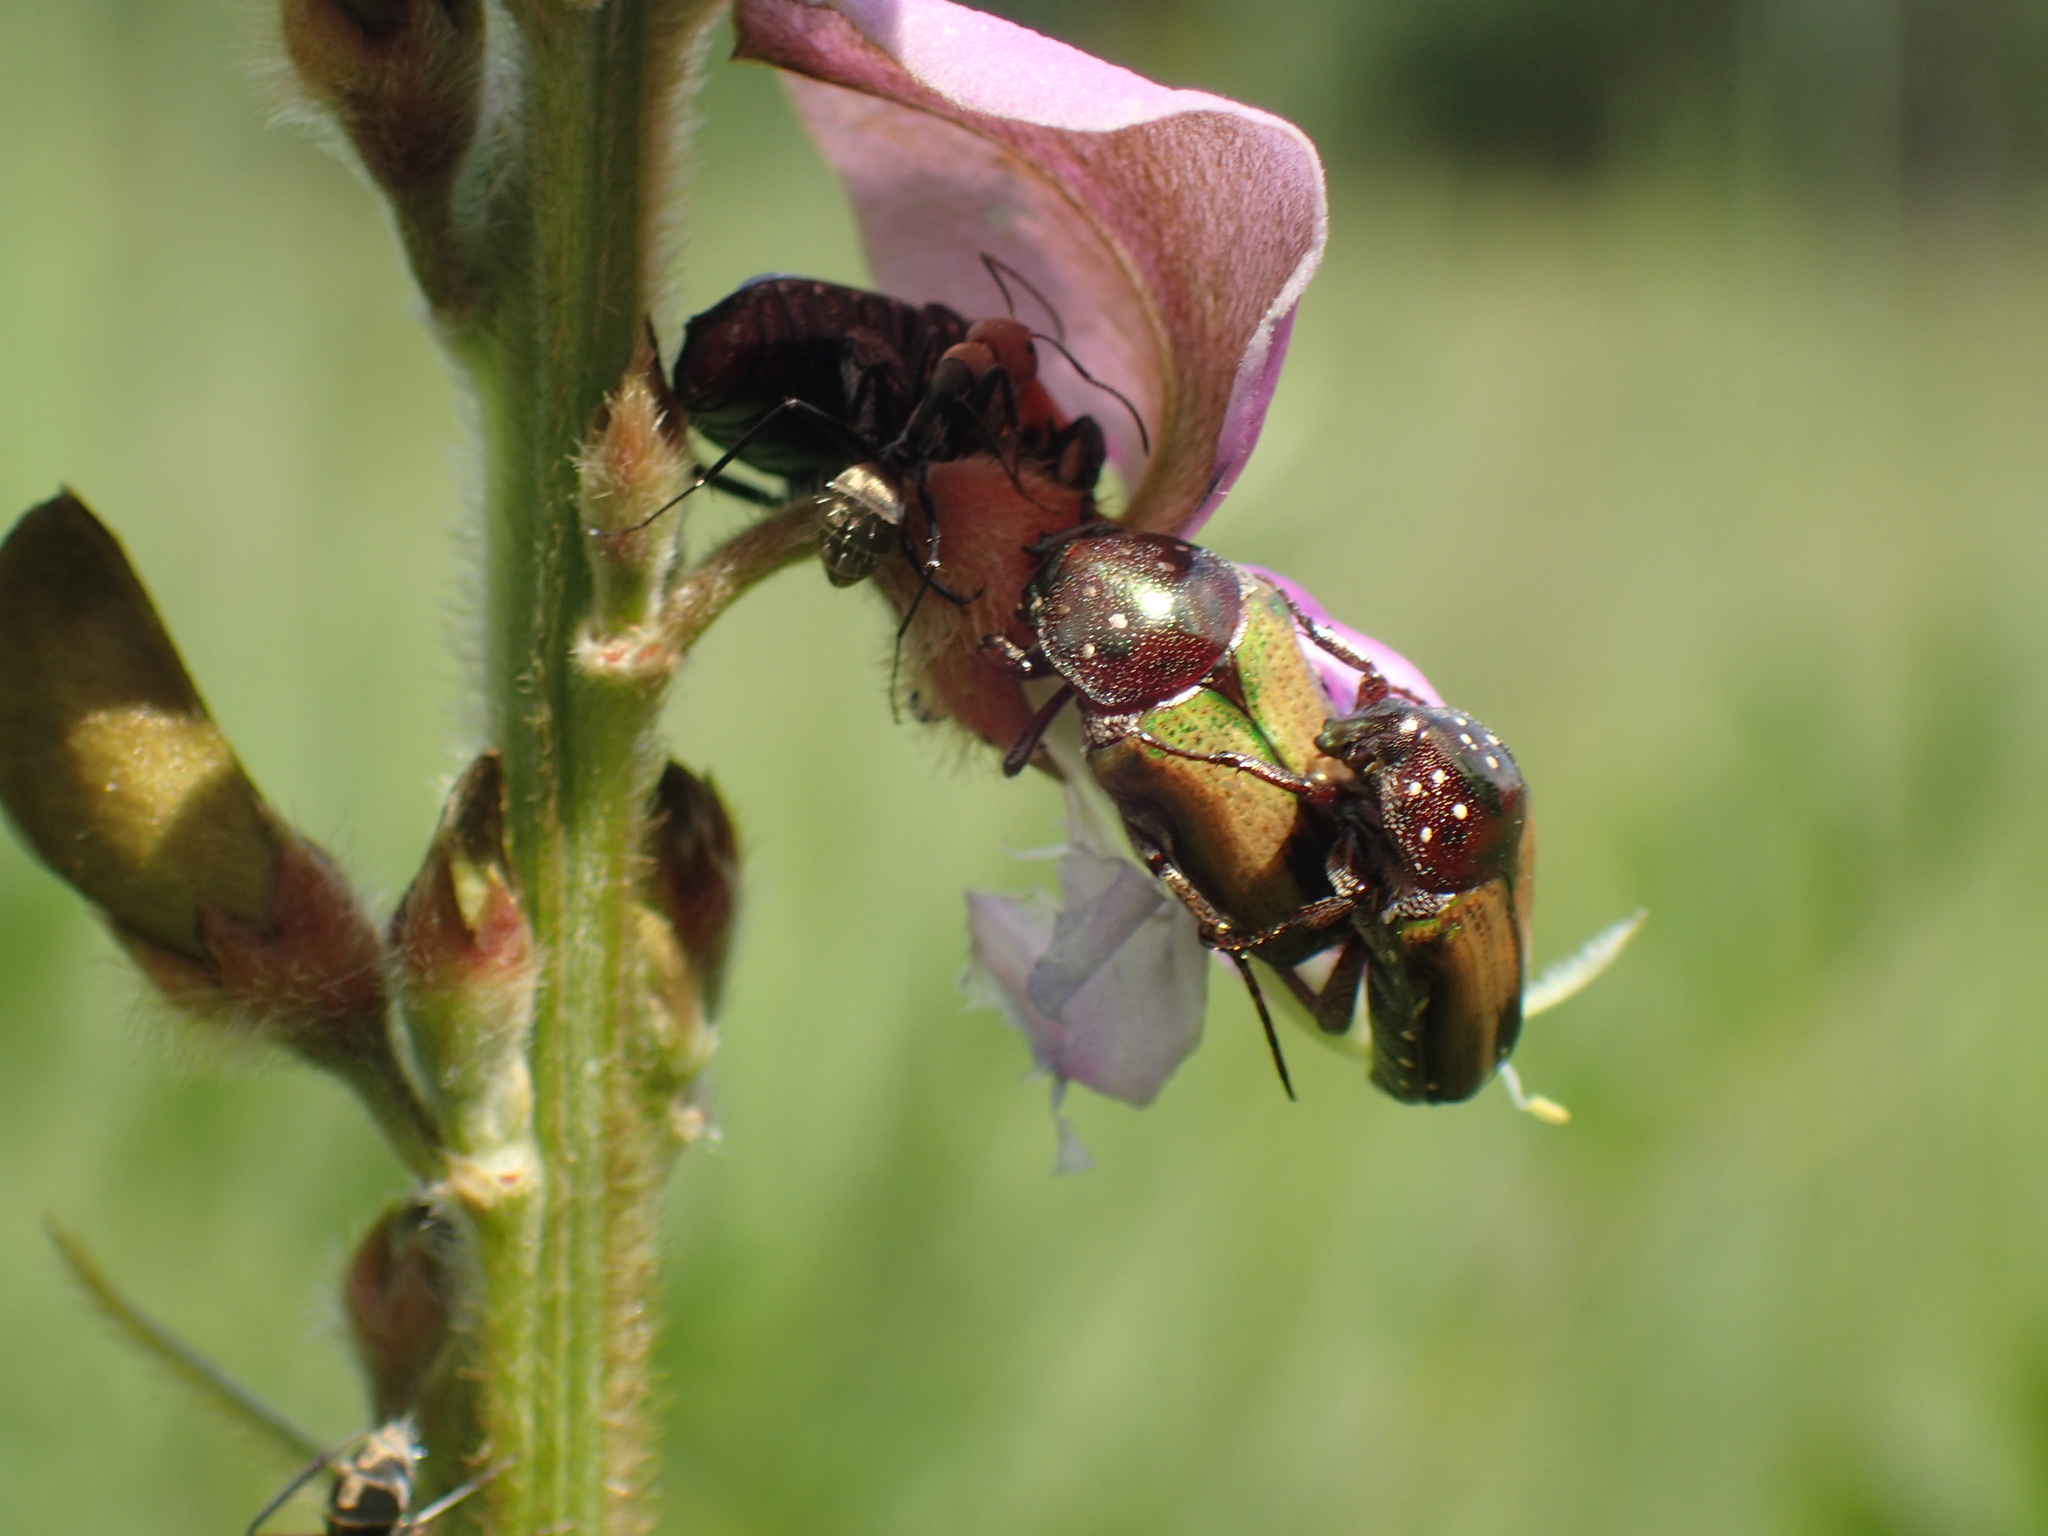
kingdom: Animalia
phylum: Arthropoda
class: Insecta
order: Coleoptera
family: Scarabaeidae
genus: Leucocelis
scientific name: Leucocelis plebeja
